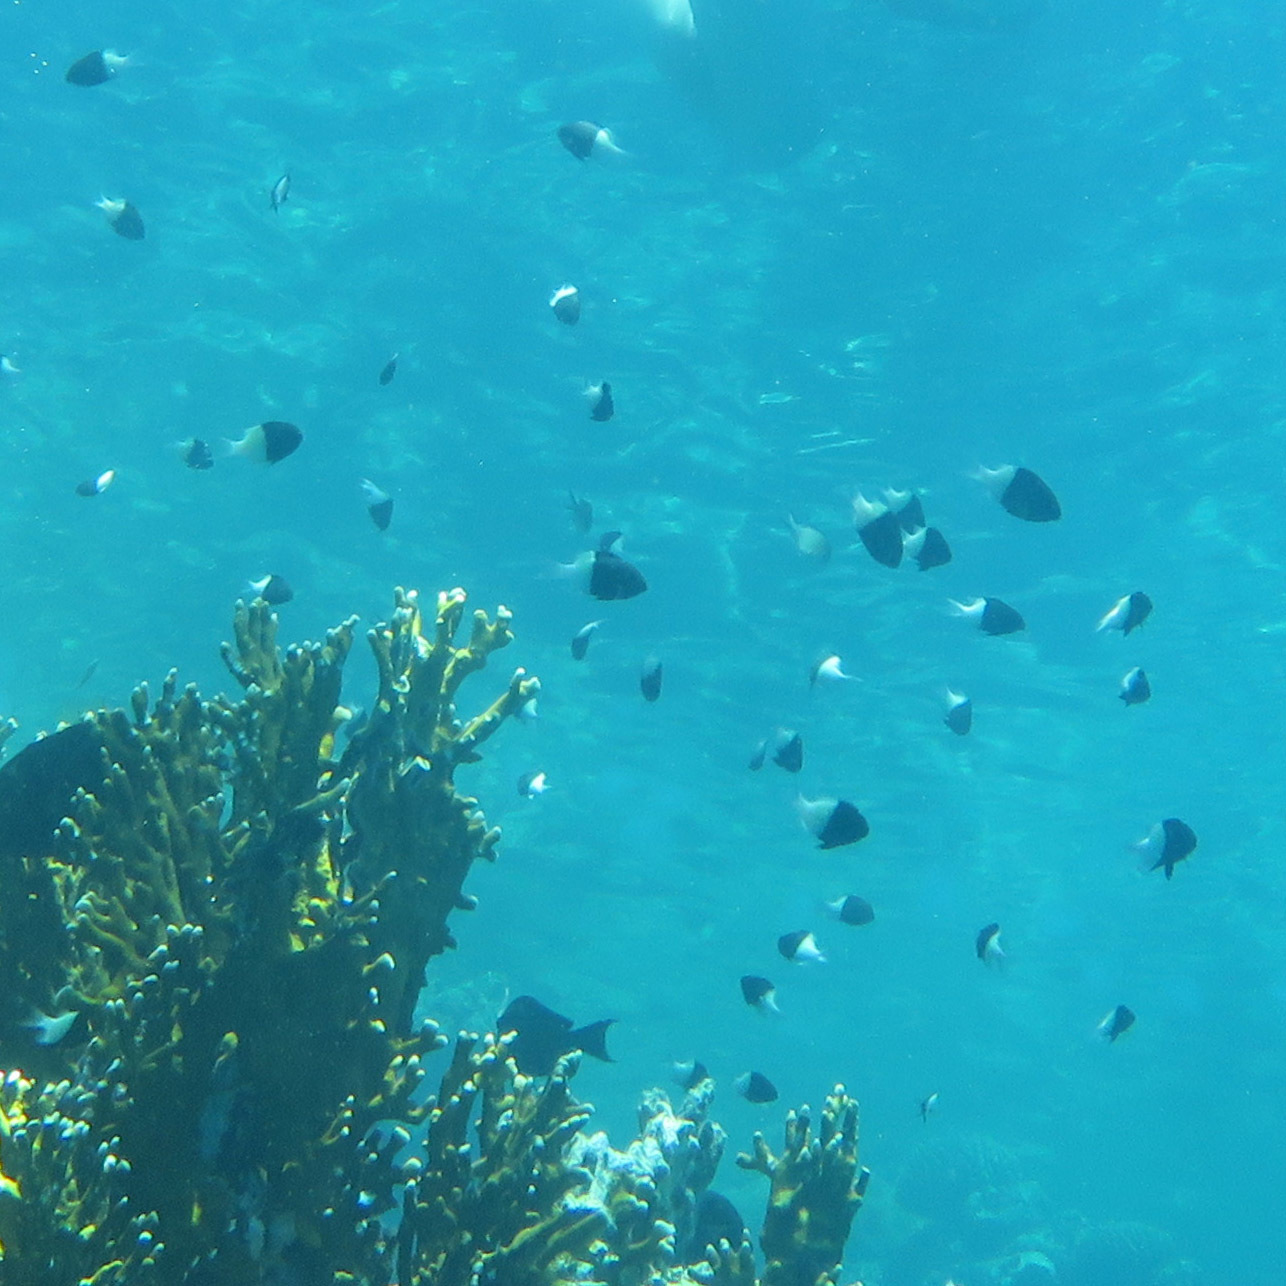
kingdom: Animalia
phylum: Chordata
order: Perciformes
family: Pomacentridae
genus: Chromis
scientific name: Chromis dimidiata
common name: Half-and-half chromis
